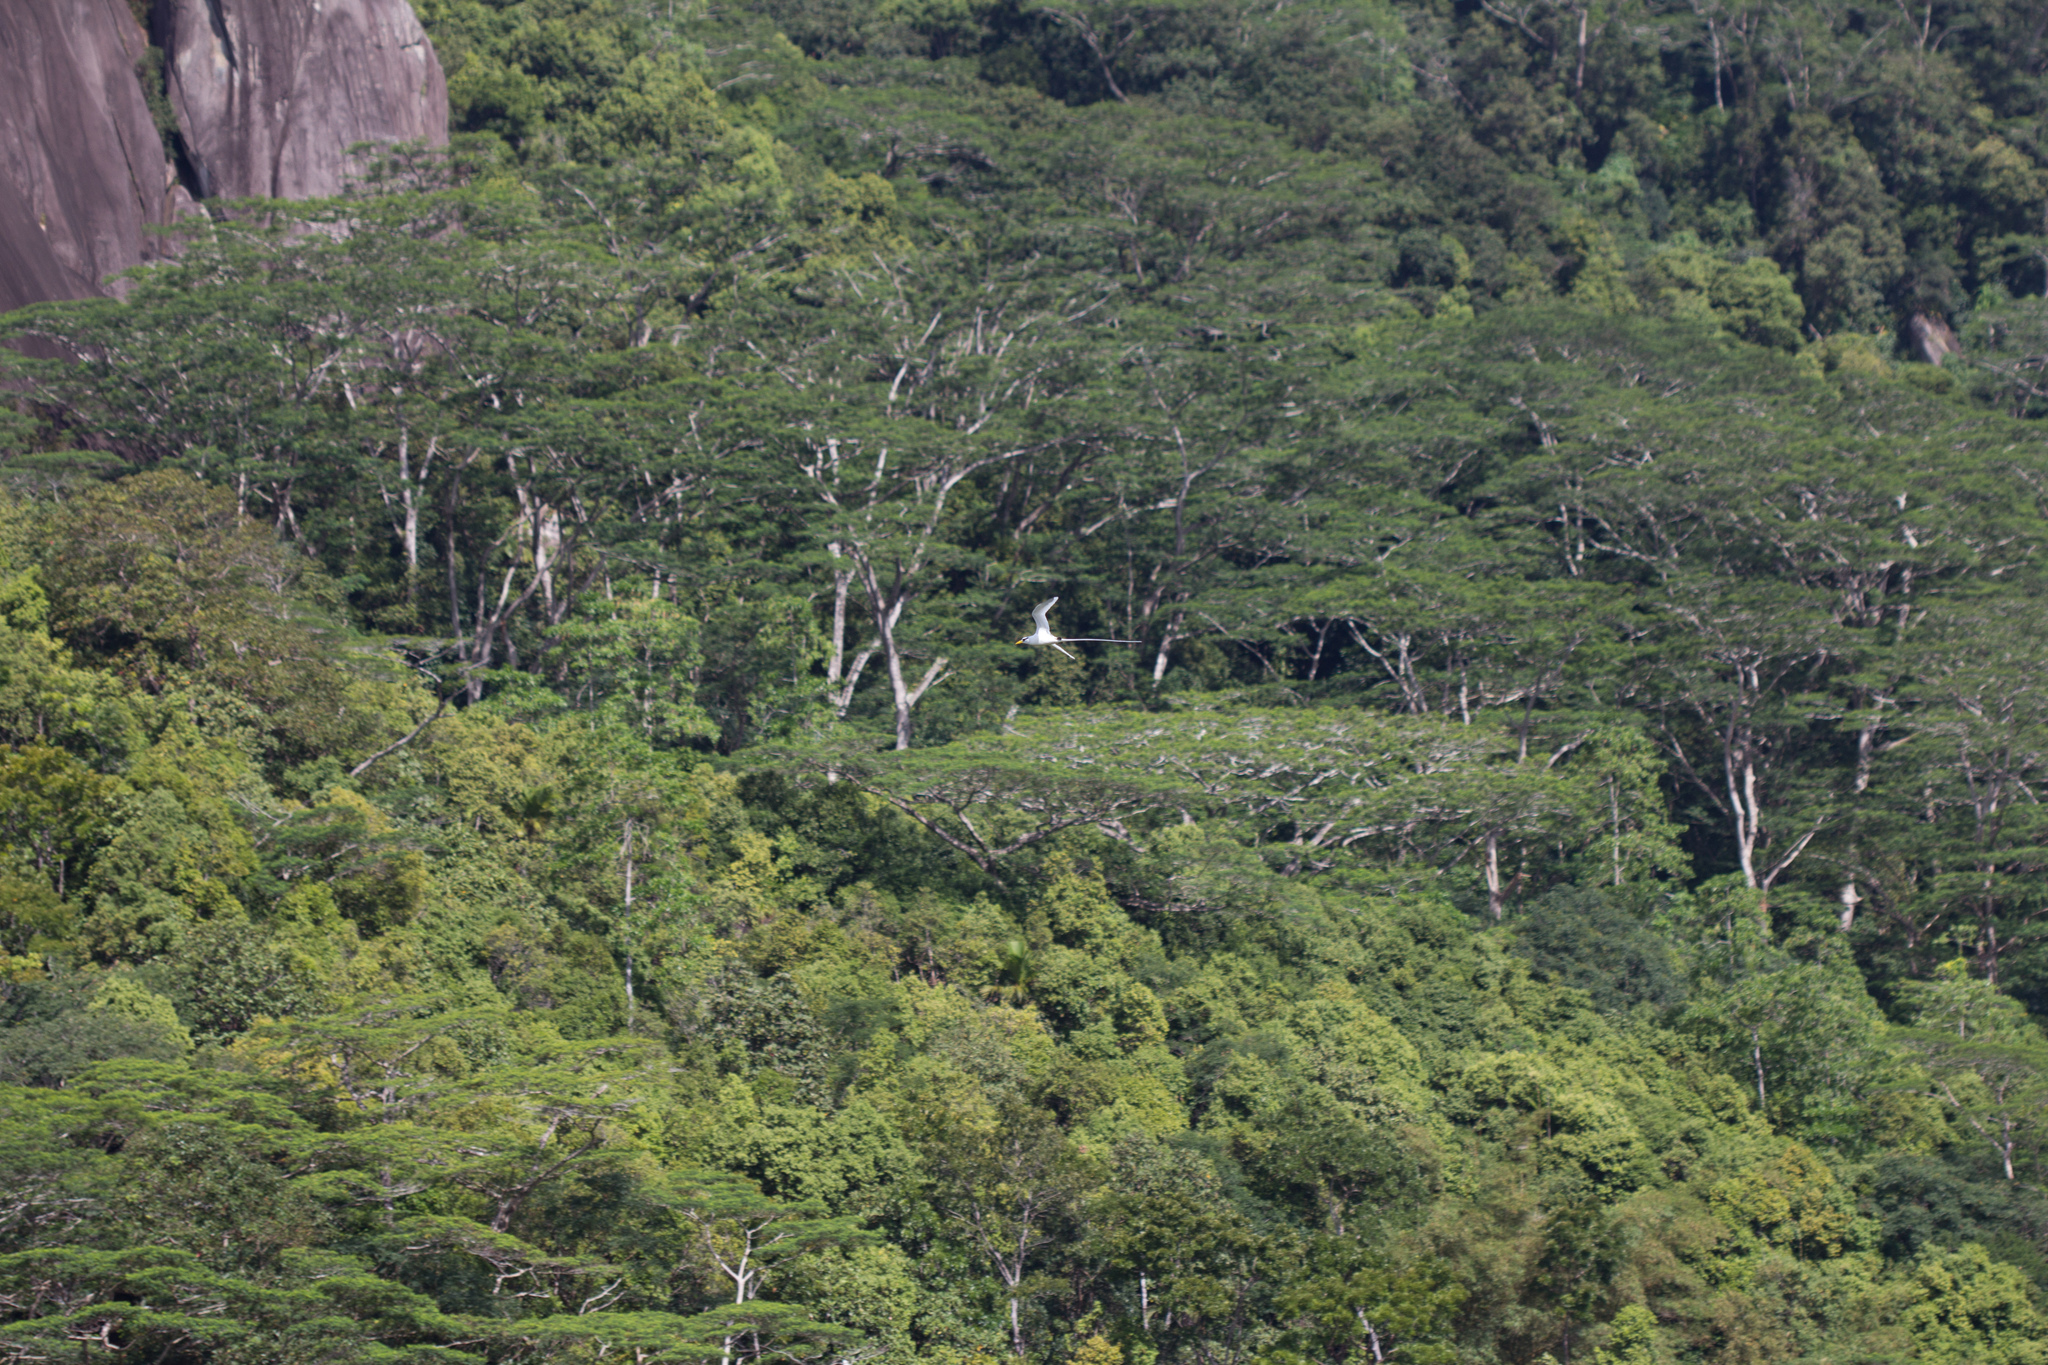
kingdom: Animalia
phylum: Chordata
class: Aves
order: Phaethontiformes
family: Phaethontidae
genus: Phaethon
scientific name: Phaethon lepturus
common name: White-tailed tropicbird
